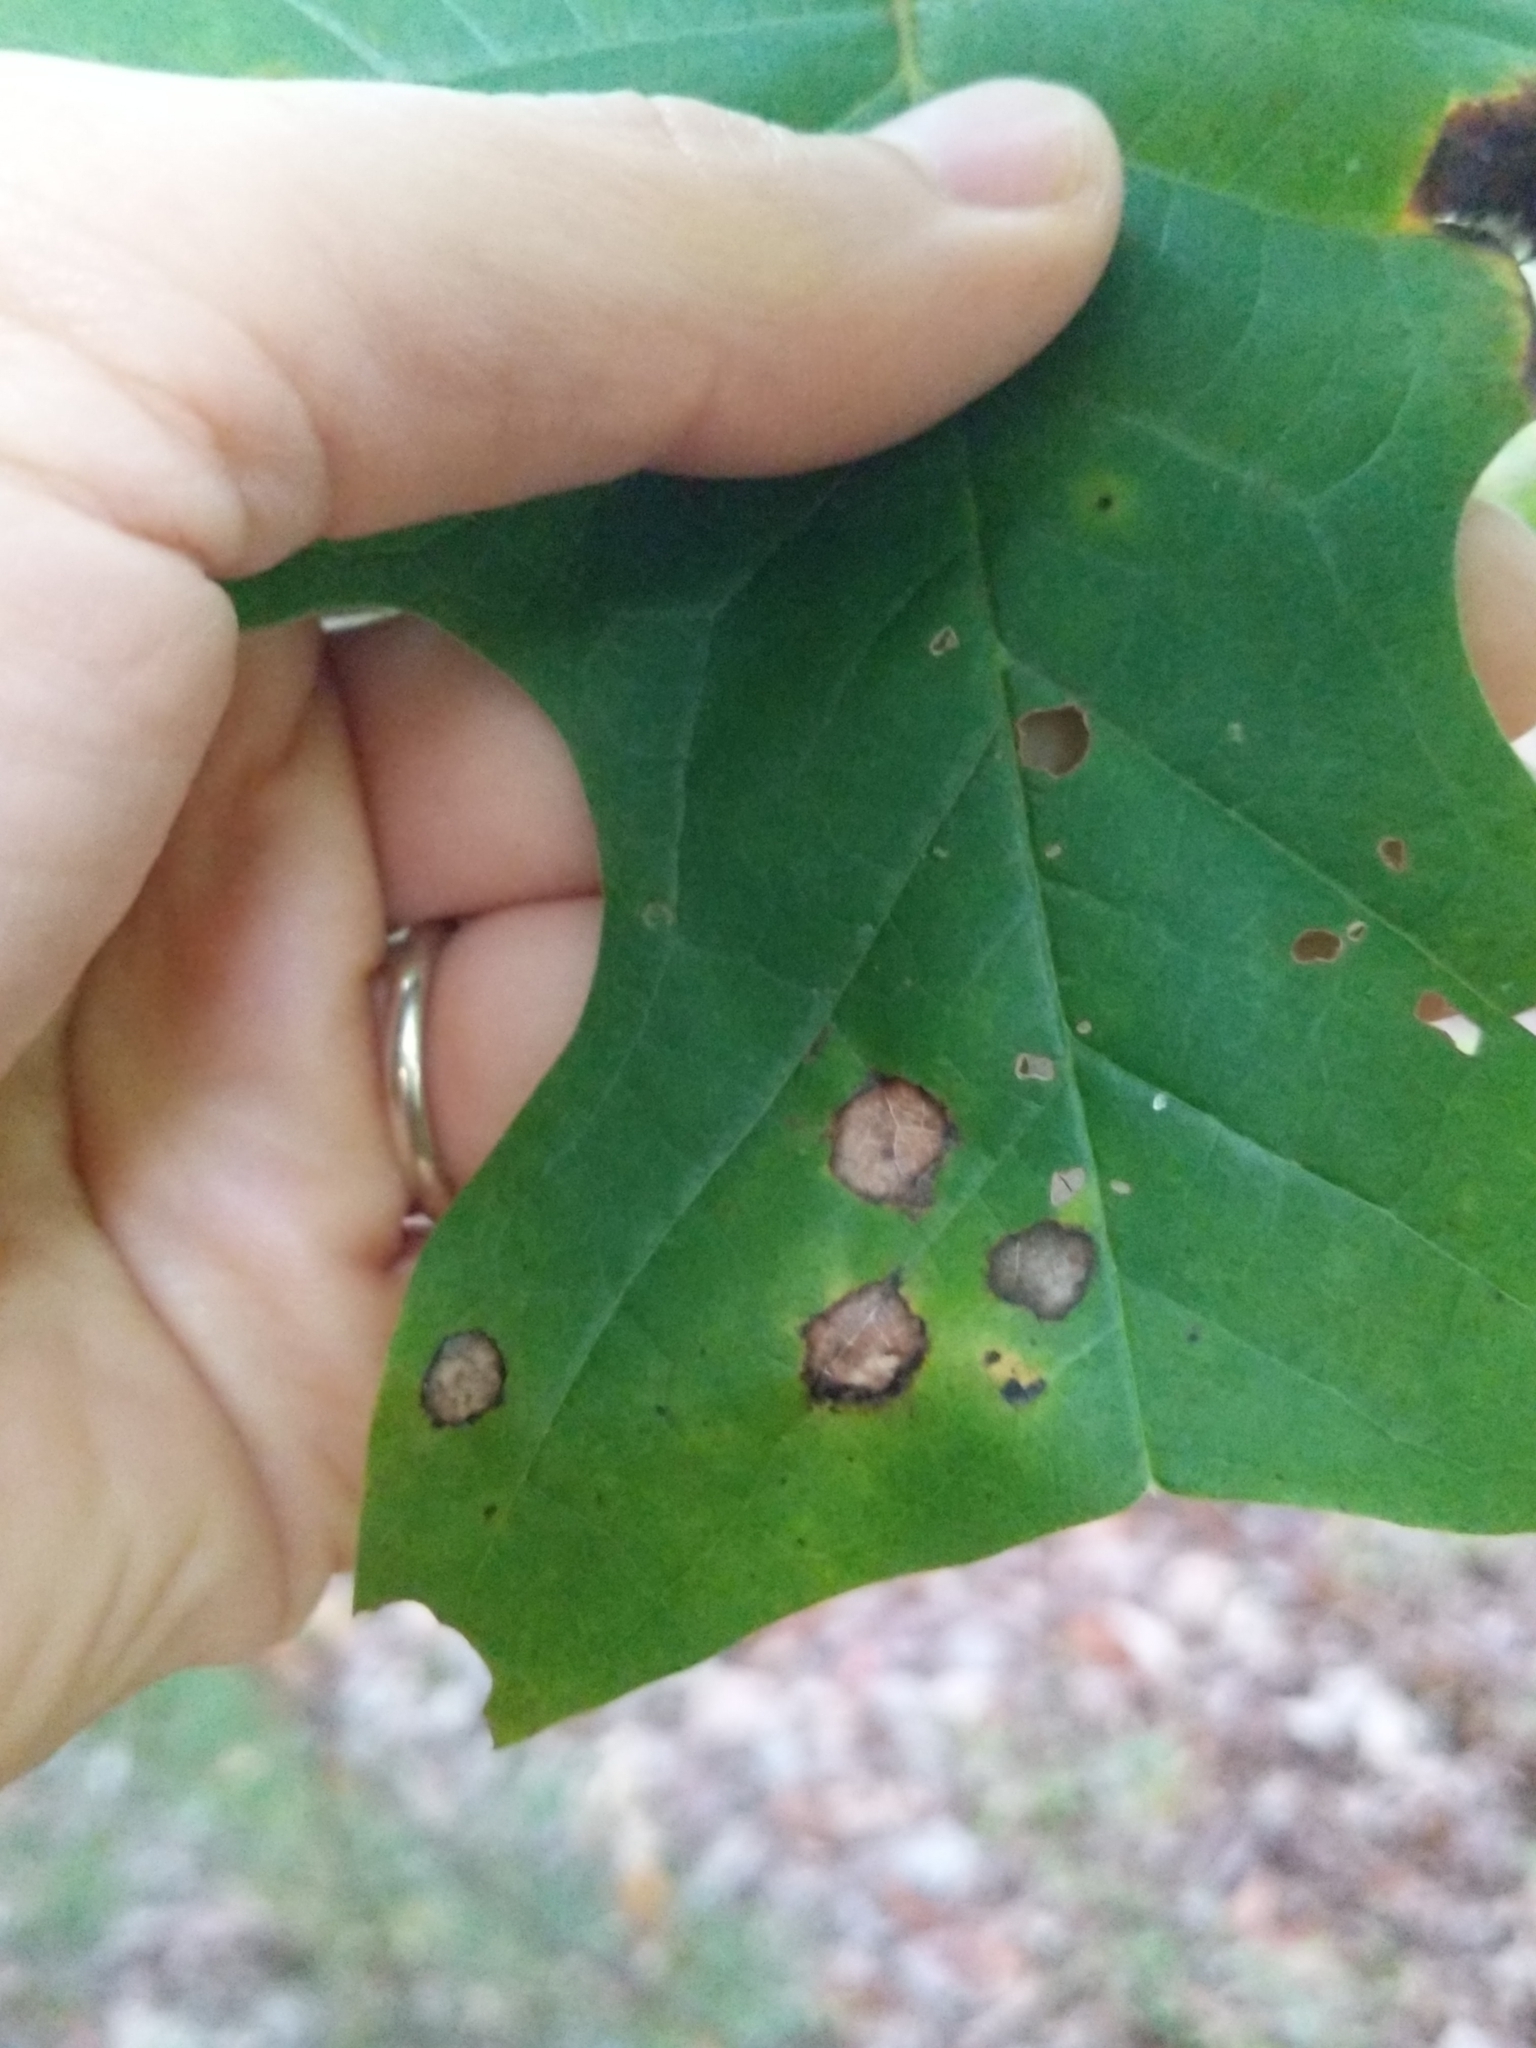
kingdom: Animalia
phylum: Arthropoda
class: Insecta
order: Diptera
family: Cecidomyiidae
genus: Resseliella
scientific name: Resseliella liriodendri
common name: Tulip tree leaf spot gall midge
